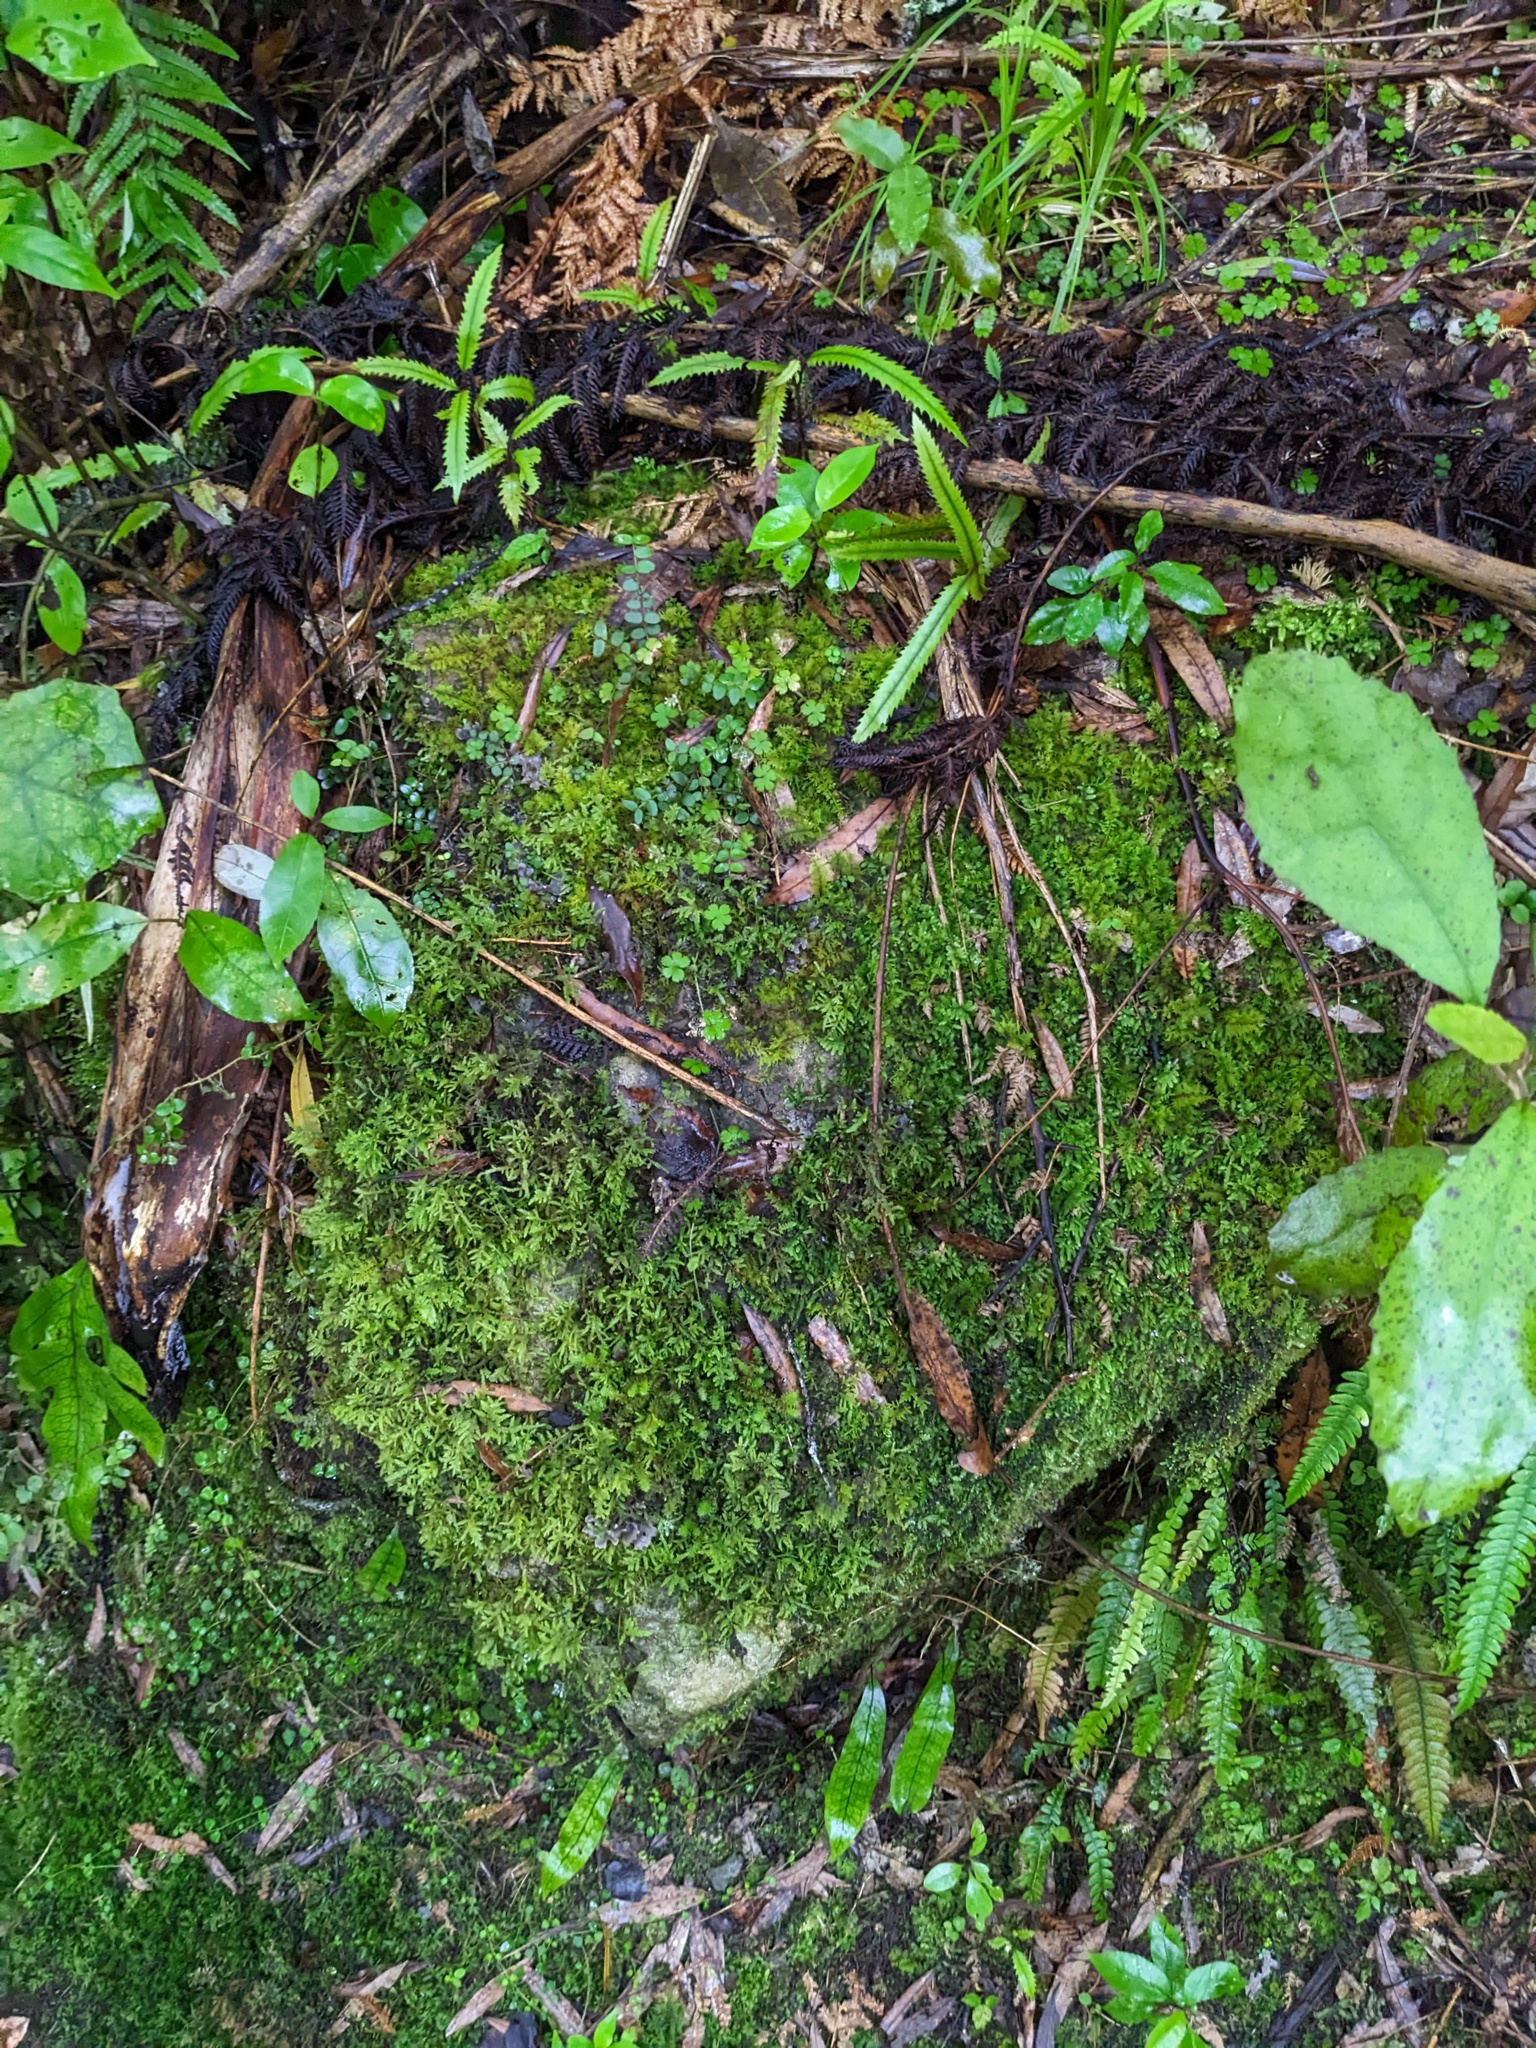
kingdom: Plantae
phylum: Tracheophyta
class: Magnoliopsida
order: Apiales
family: Araliaceae
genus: Hydrocotyle
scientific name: Hydrocotyle elongata
